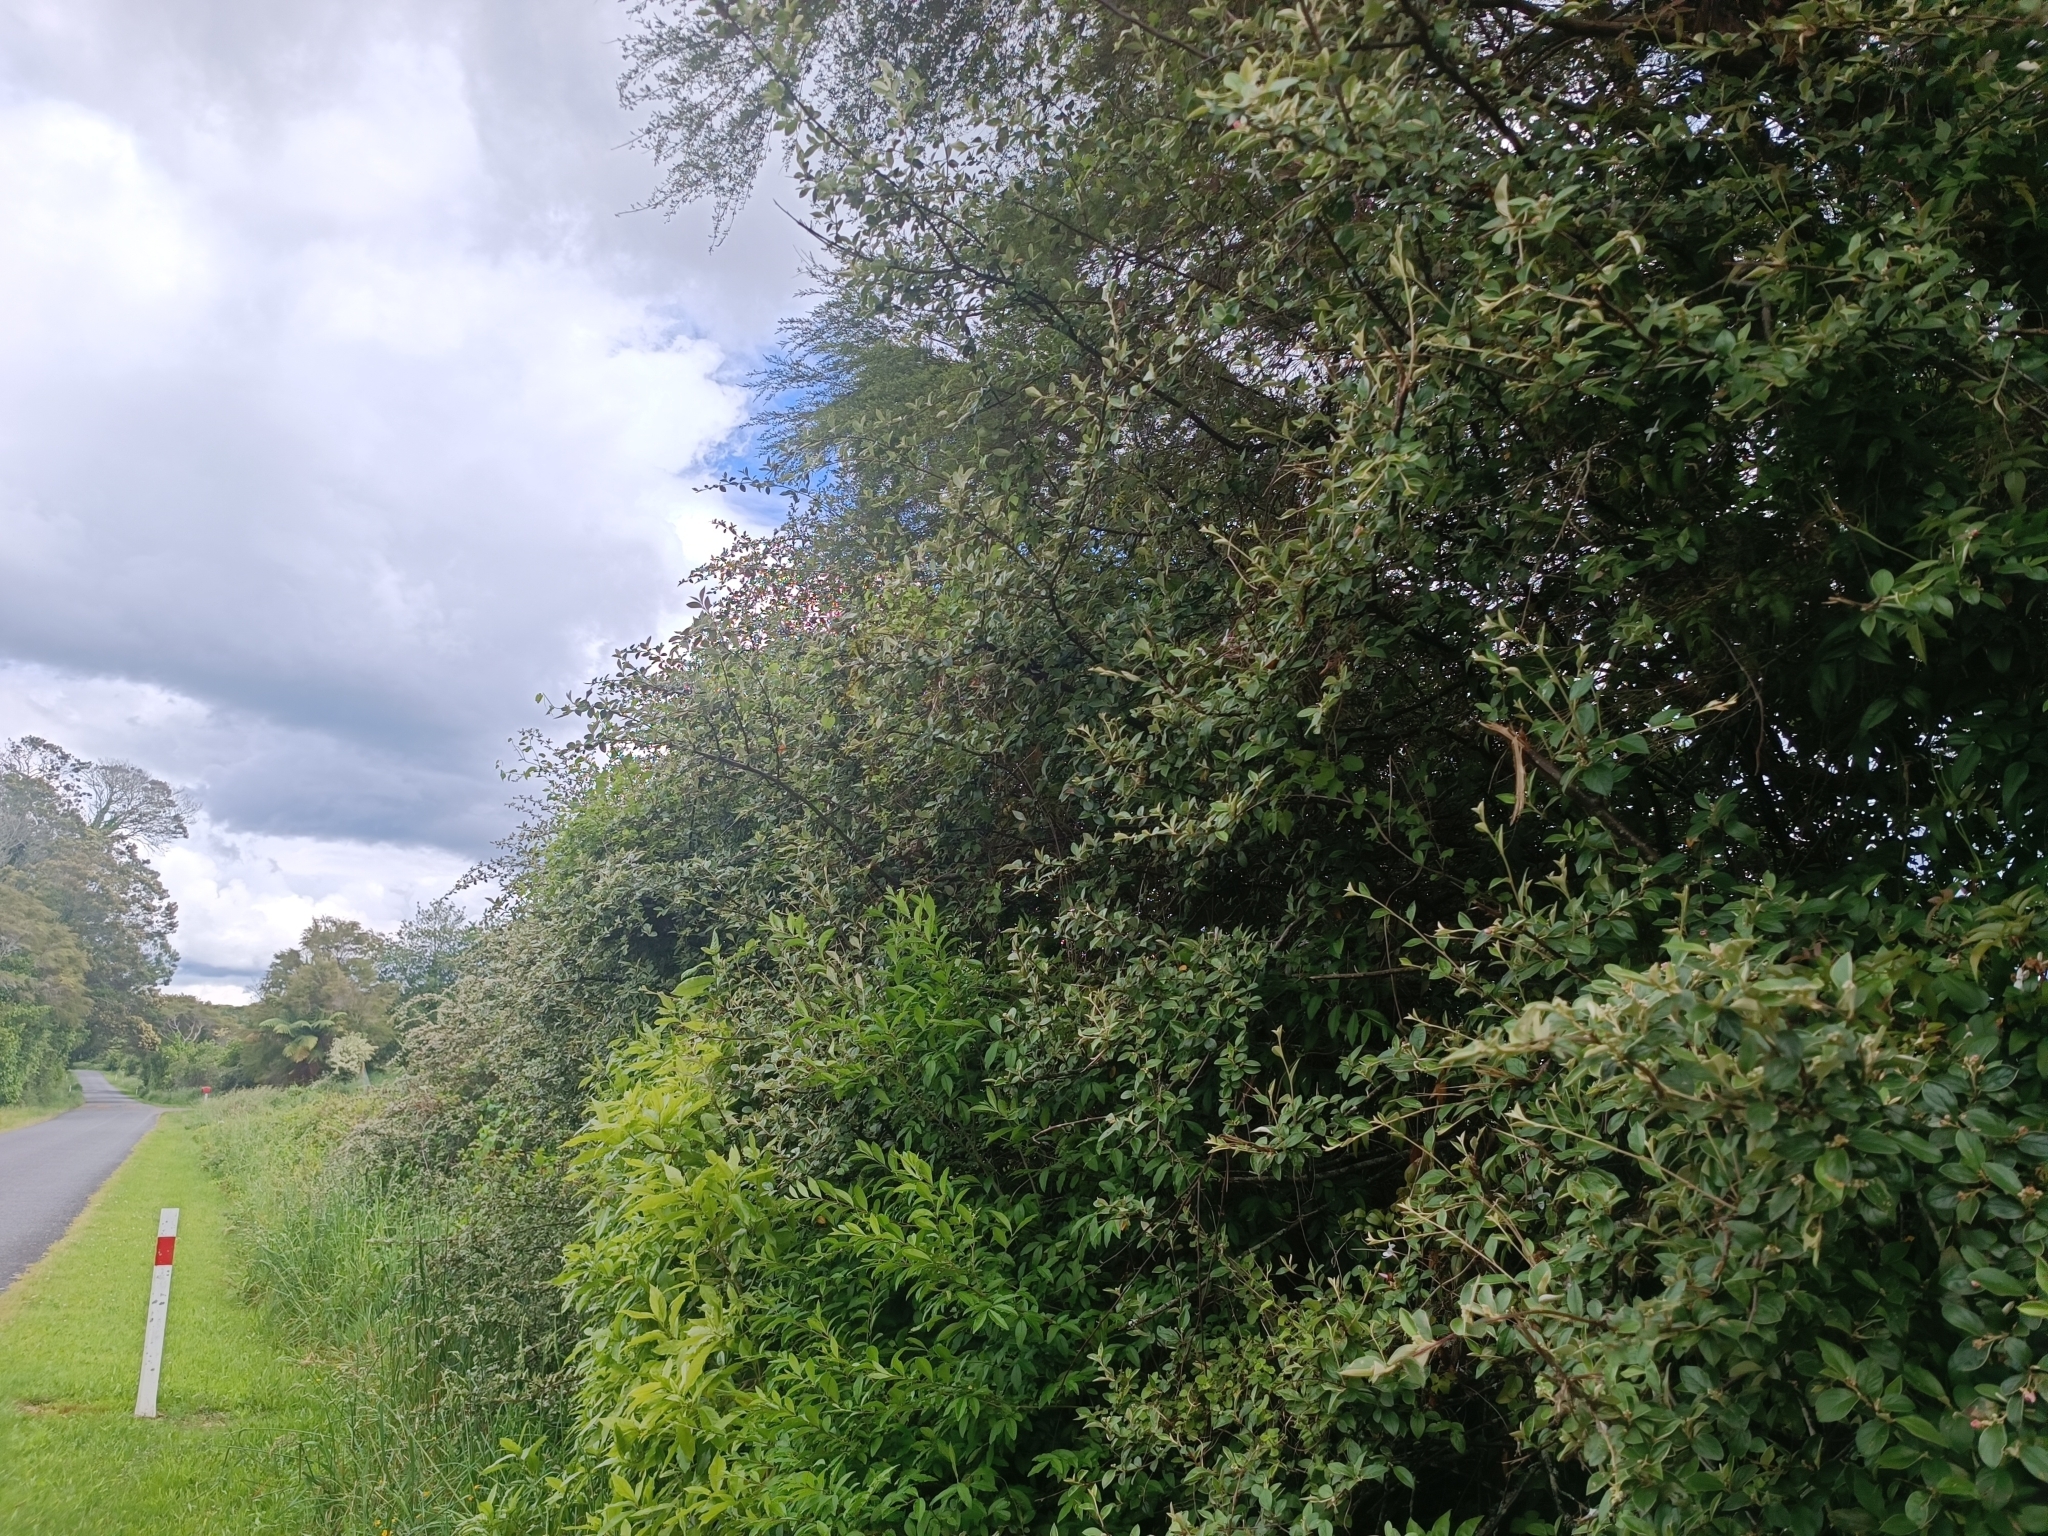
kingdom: Plantae
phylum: Tracheophyta
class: Magnoliopsida
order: Rosales
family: Rosaceae
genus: Cotoneaster
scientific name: Cotoneaster franchetii
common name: Franchet's cotoneaster
